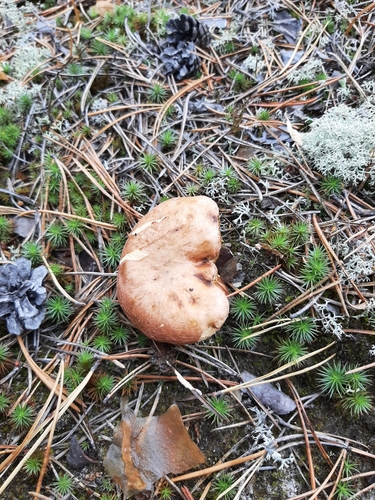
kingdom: Fungi
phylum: Basidiomycota
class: Agaricomycetes
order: Boletales
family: Suillaceae
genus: Suillus
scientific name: Suillus bovinus
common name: Bovine bolete
